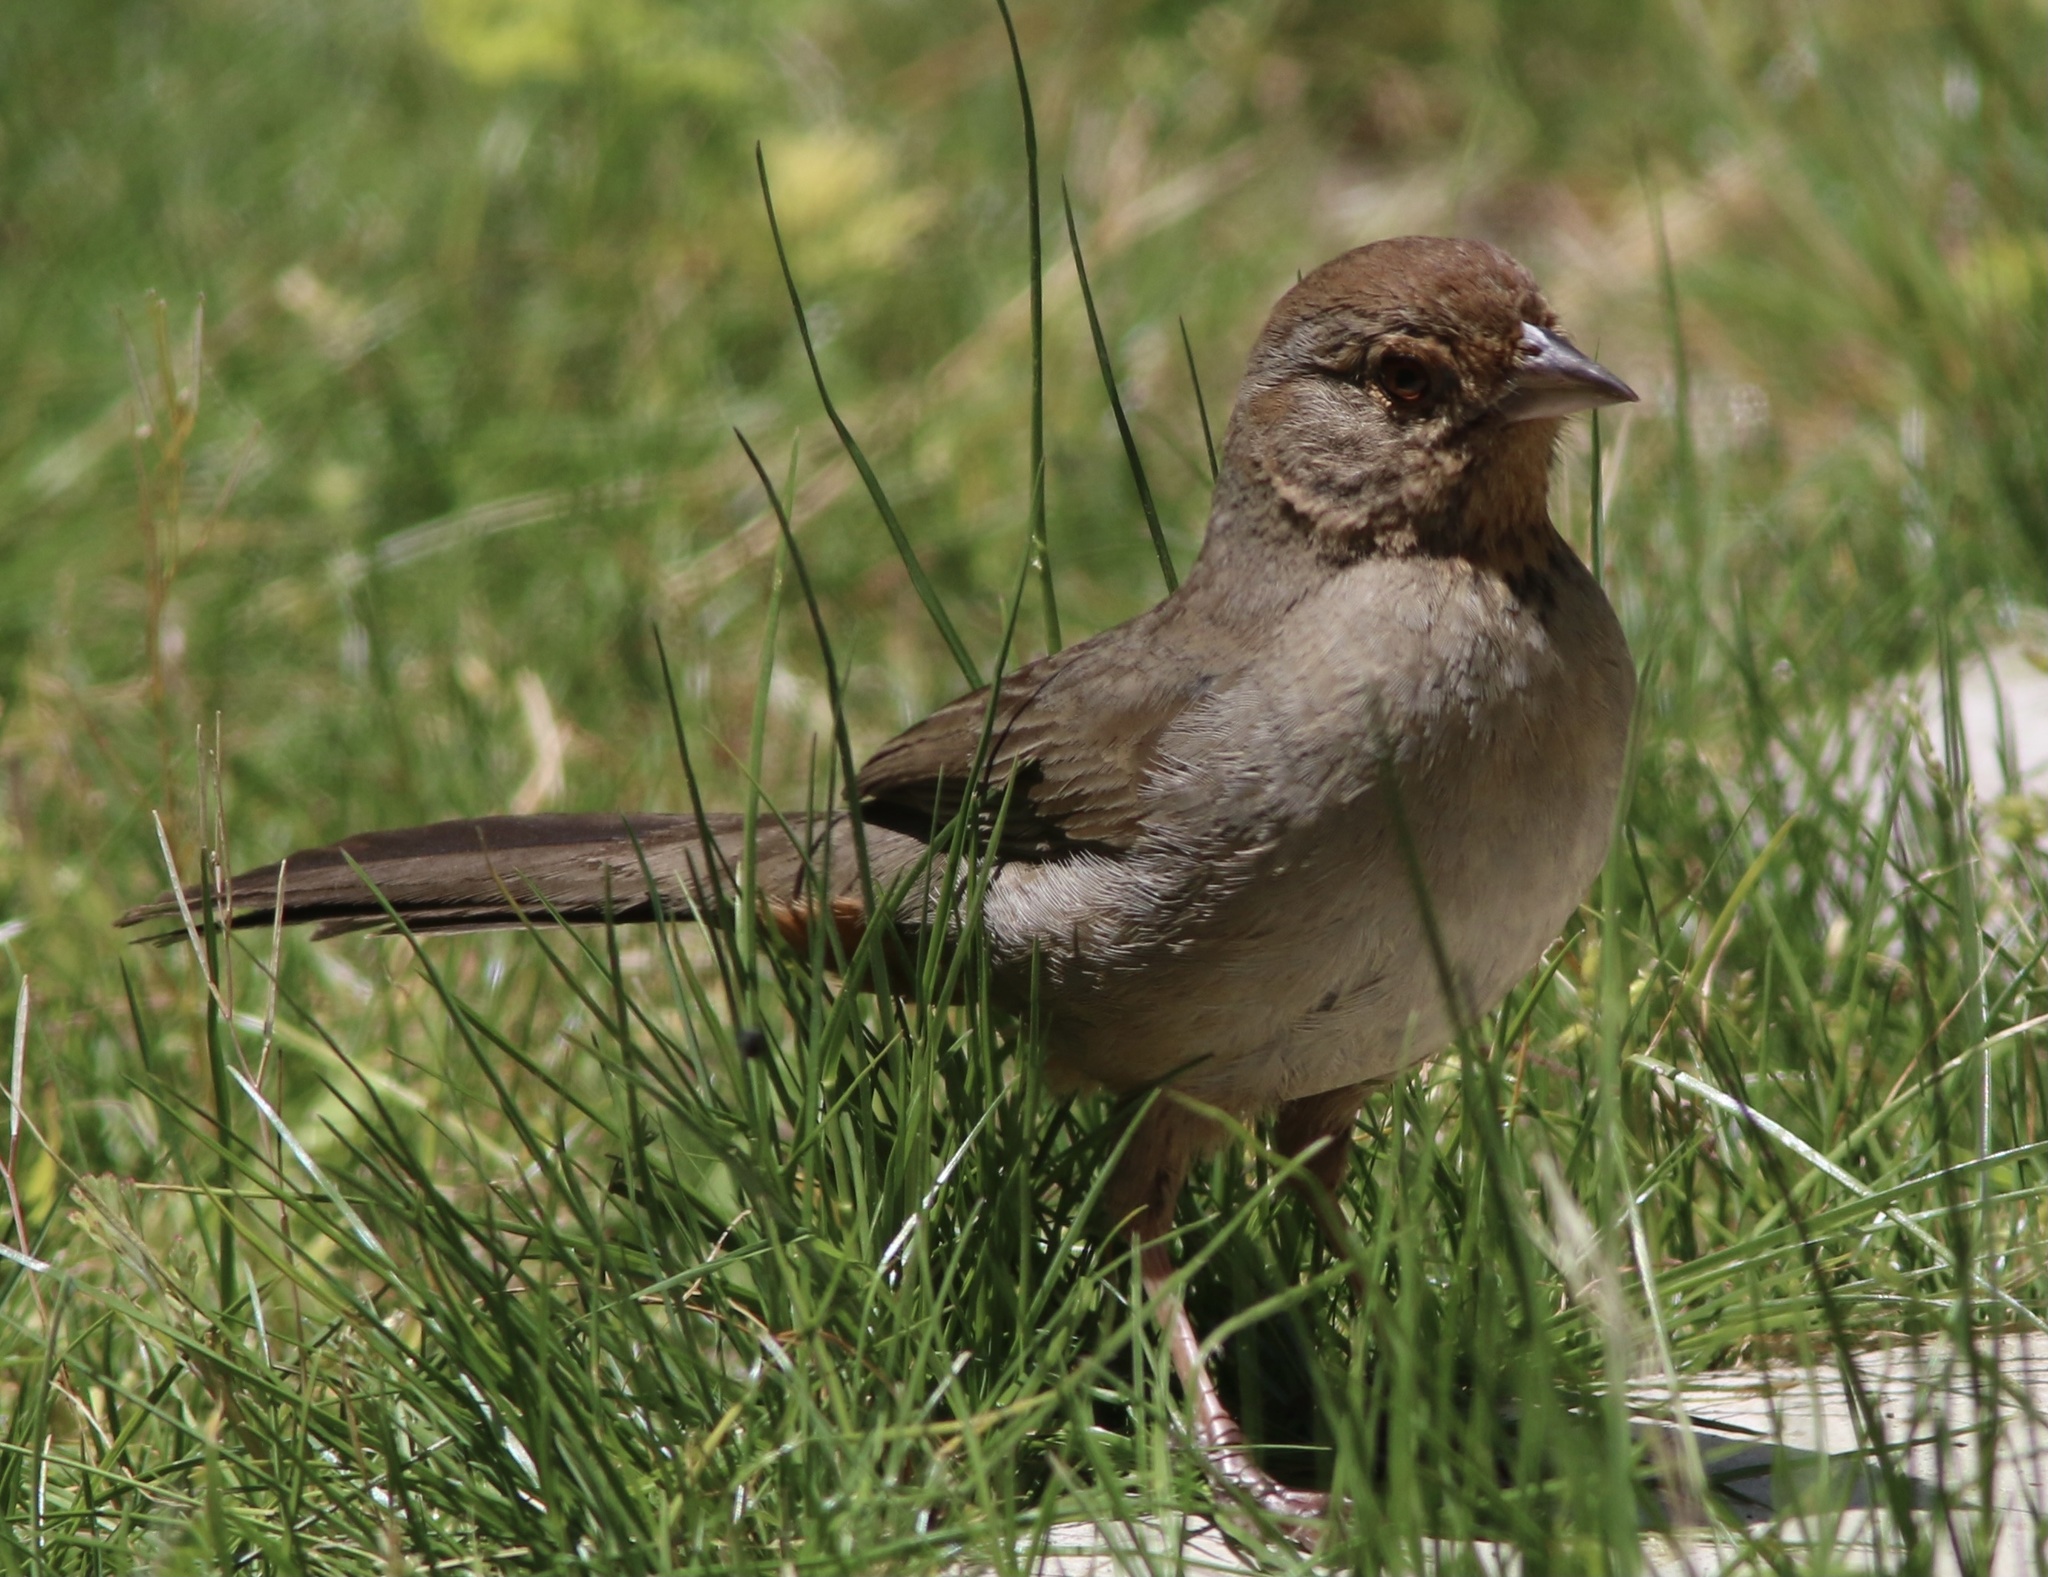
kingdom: Animalia
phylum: Chordata
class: Aves
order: Passeriformes
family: Passerellidae
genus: Melozone
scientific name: Melozone crissalis
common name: California towhee
